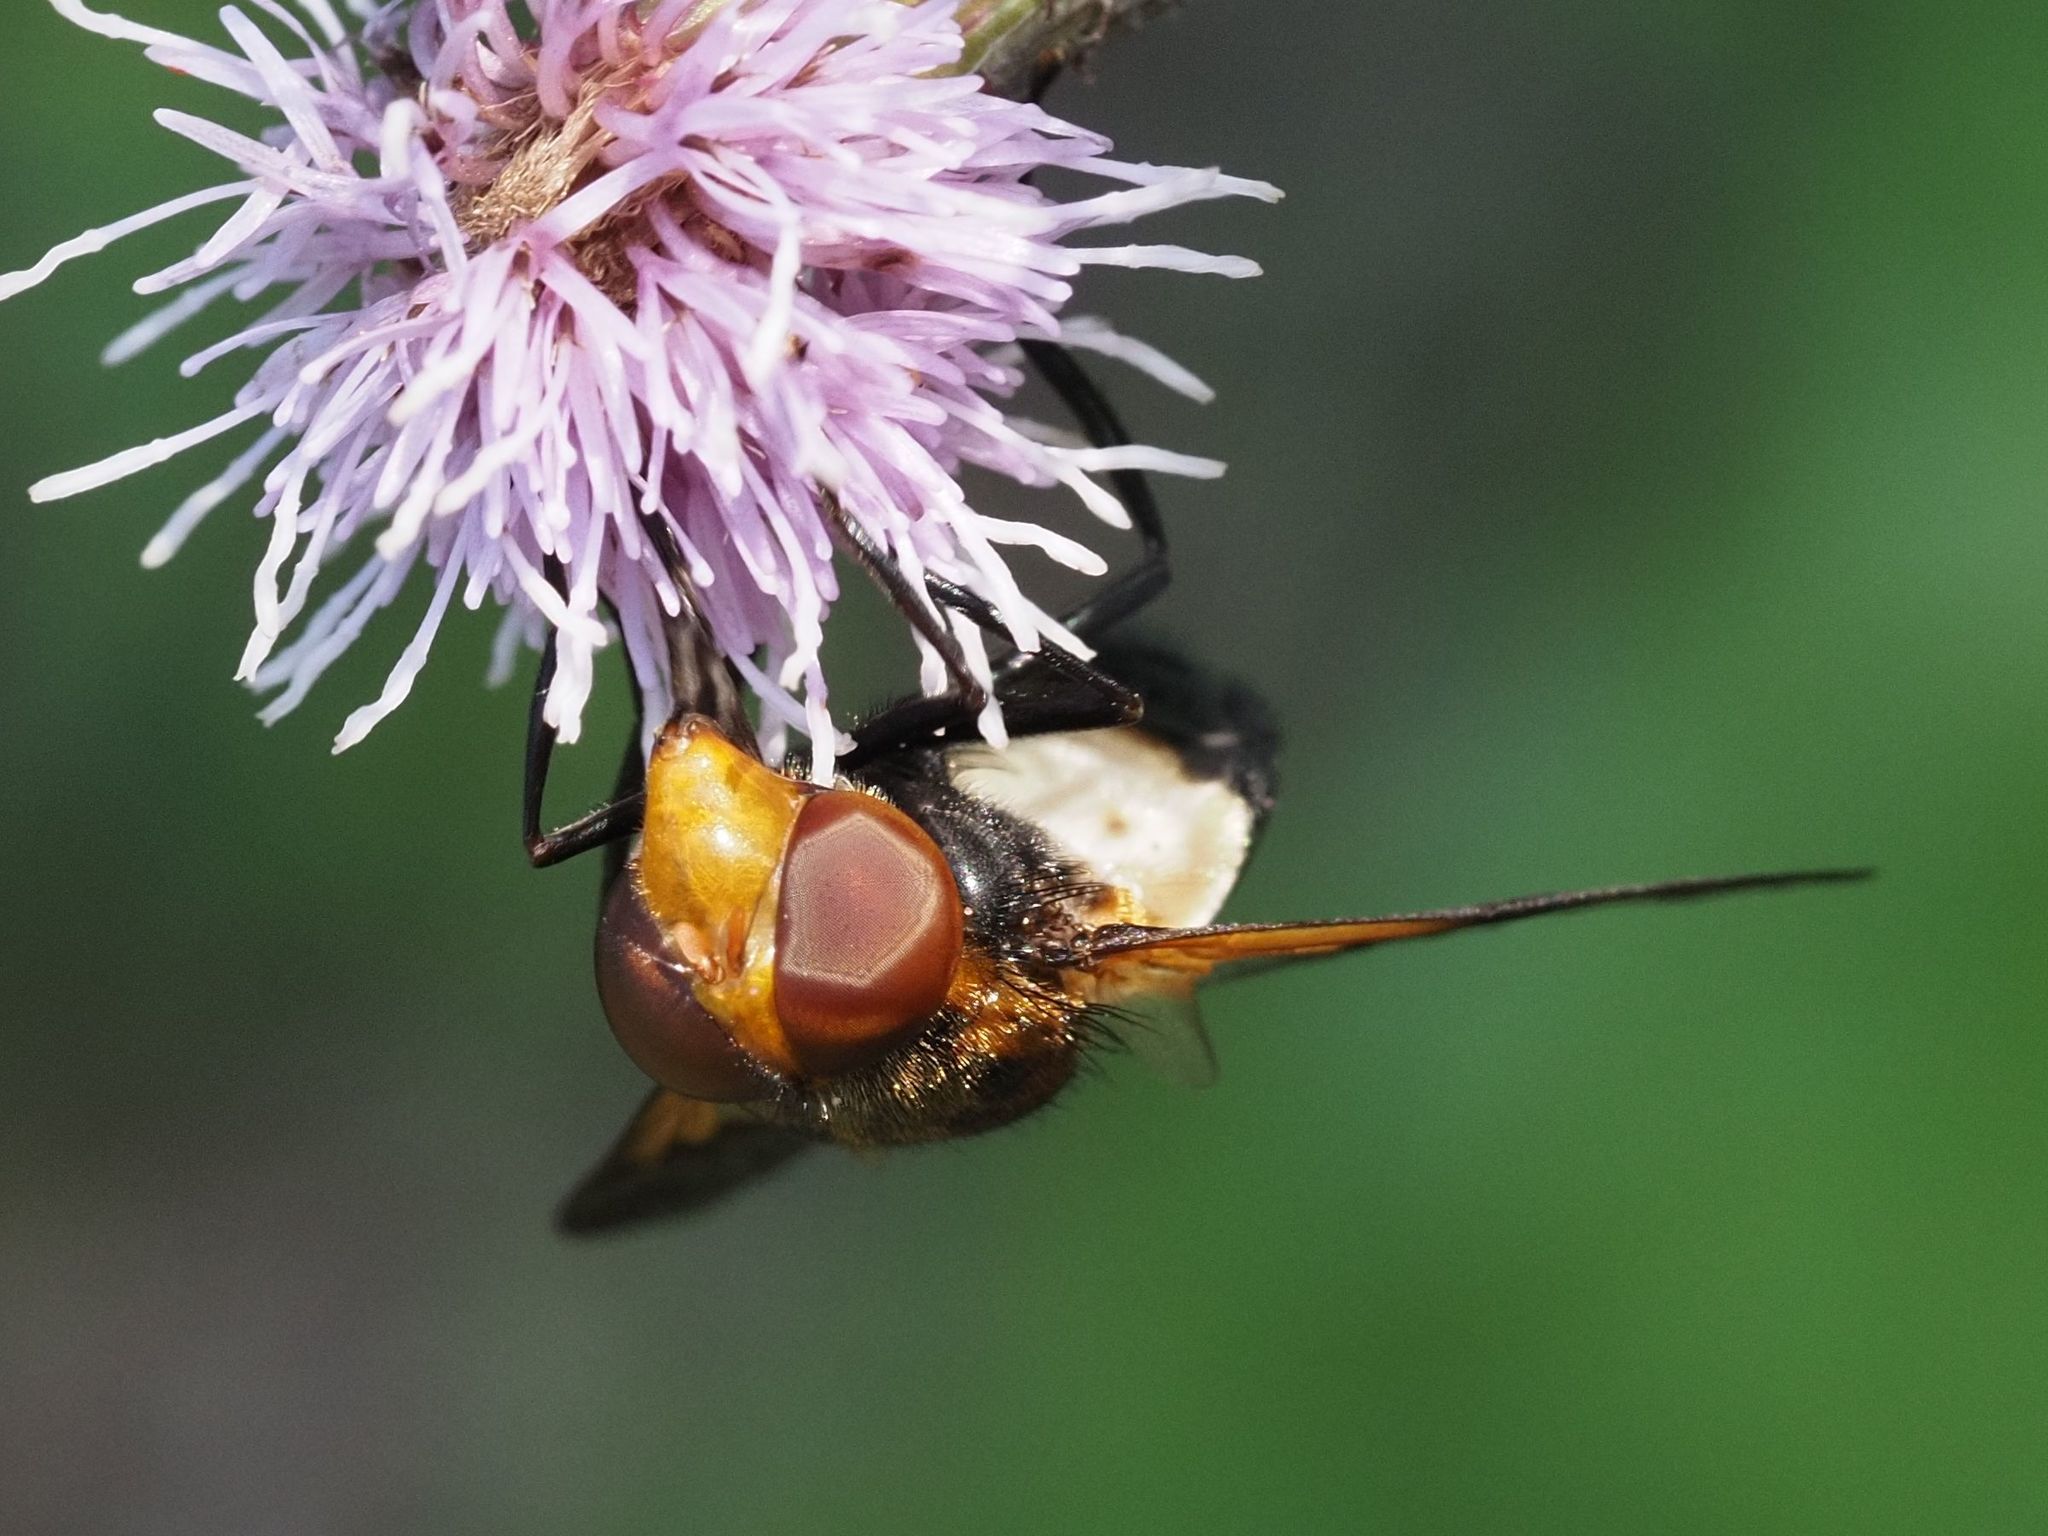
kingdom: Animalia
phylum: Arthropoda
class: Insecta
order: Diptera
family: Syrphidae
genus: Volucella
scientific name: Volucella pellucens
